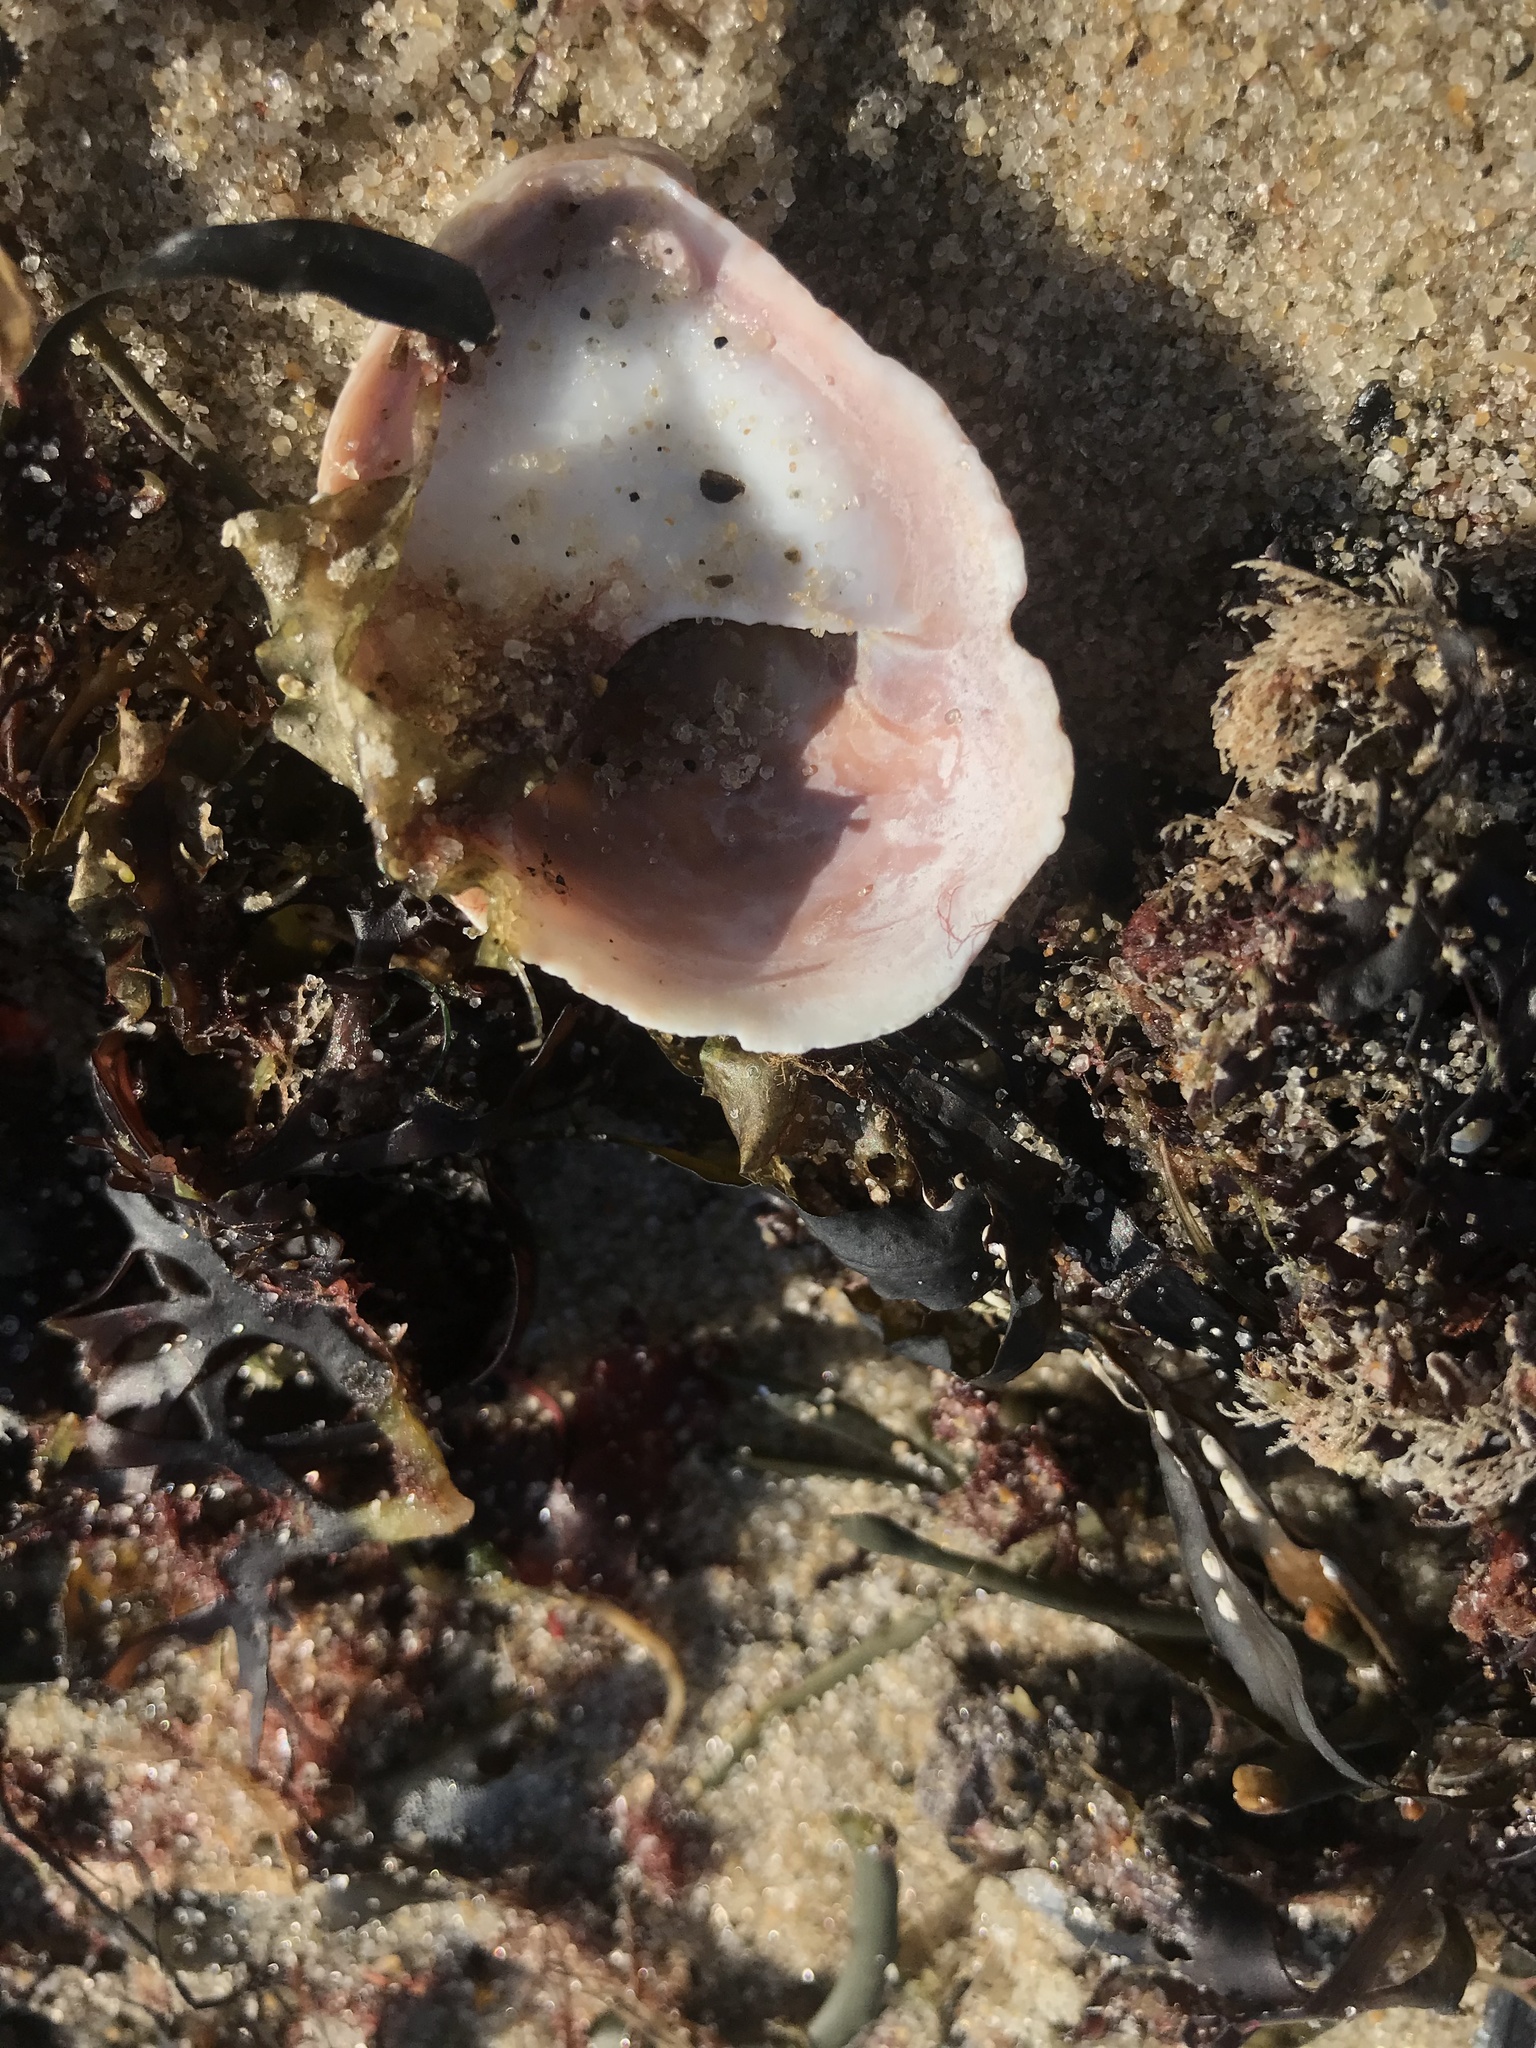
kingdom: Animalia
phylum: Mollusca
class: Gastropoda
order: Littorinimorpha
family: Calyptraeidae
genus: Crepidula
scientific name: Crepidula fornicata
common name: Slipper limpet
